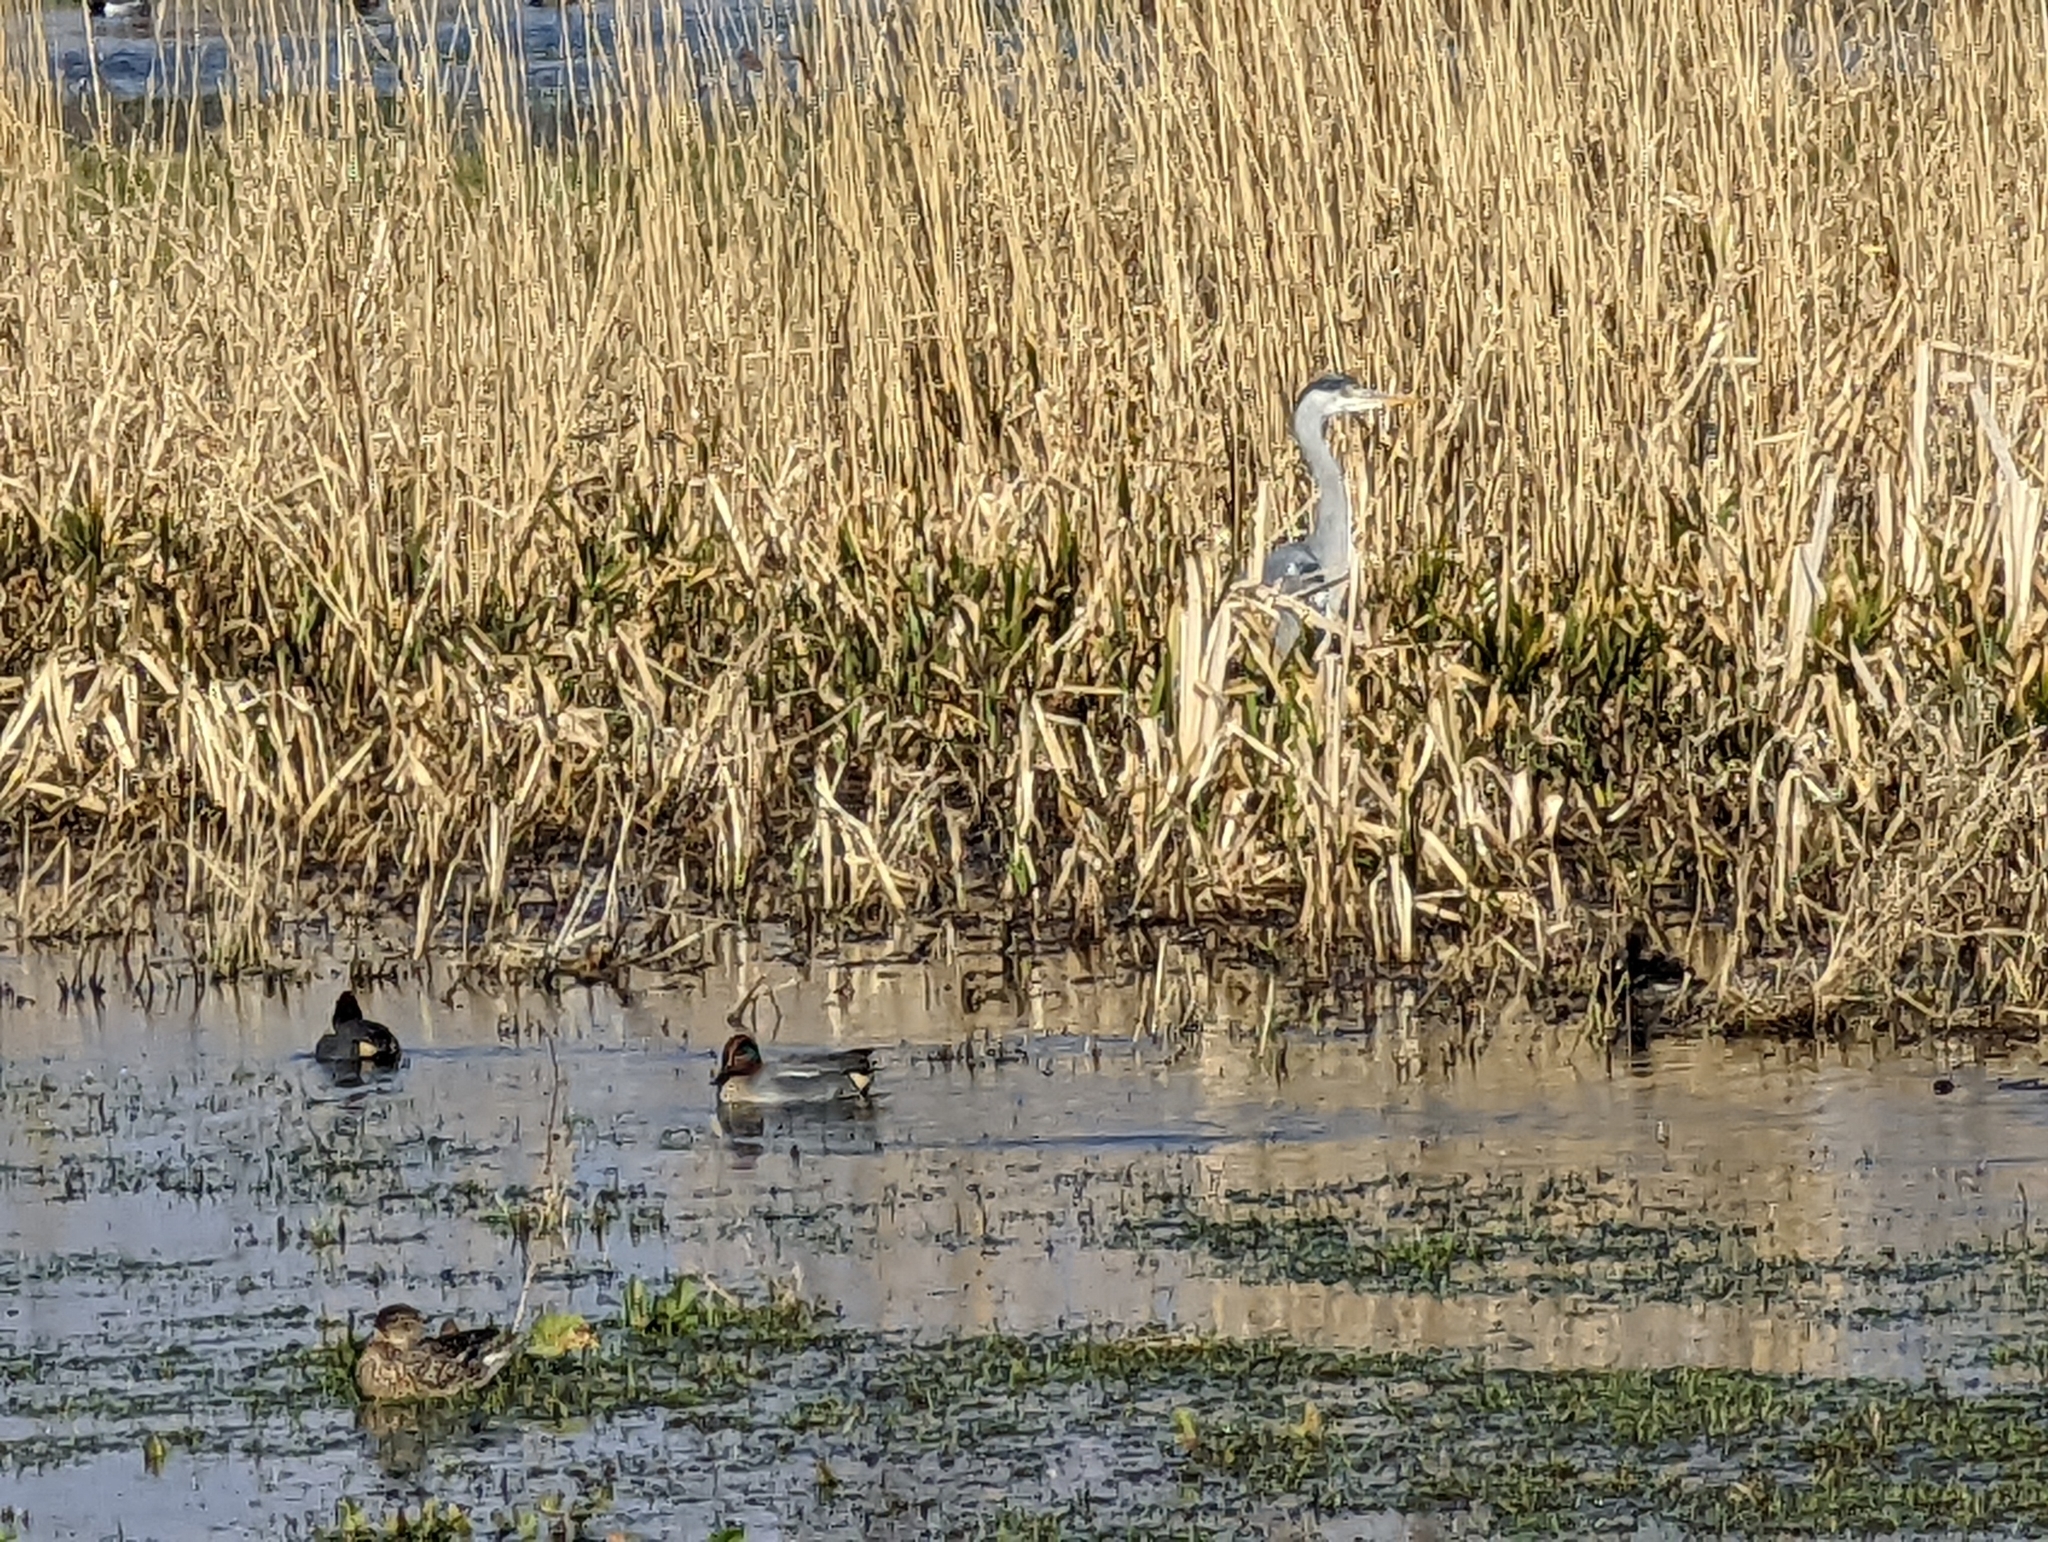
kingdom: Animalia
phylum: Chordata
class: Aves
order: Anseriformes
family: Anatidae
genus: Anas
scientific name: Anas crecca
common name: Eurasian teal
